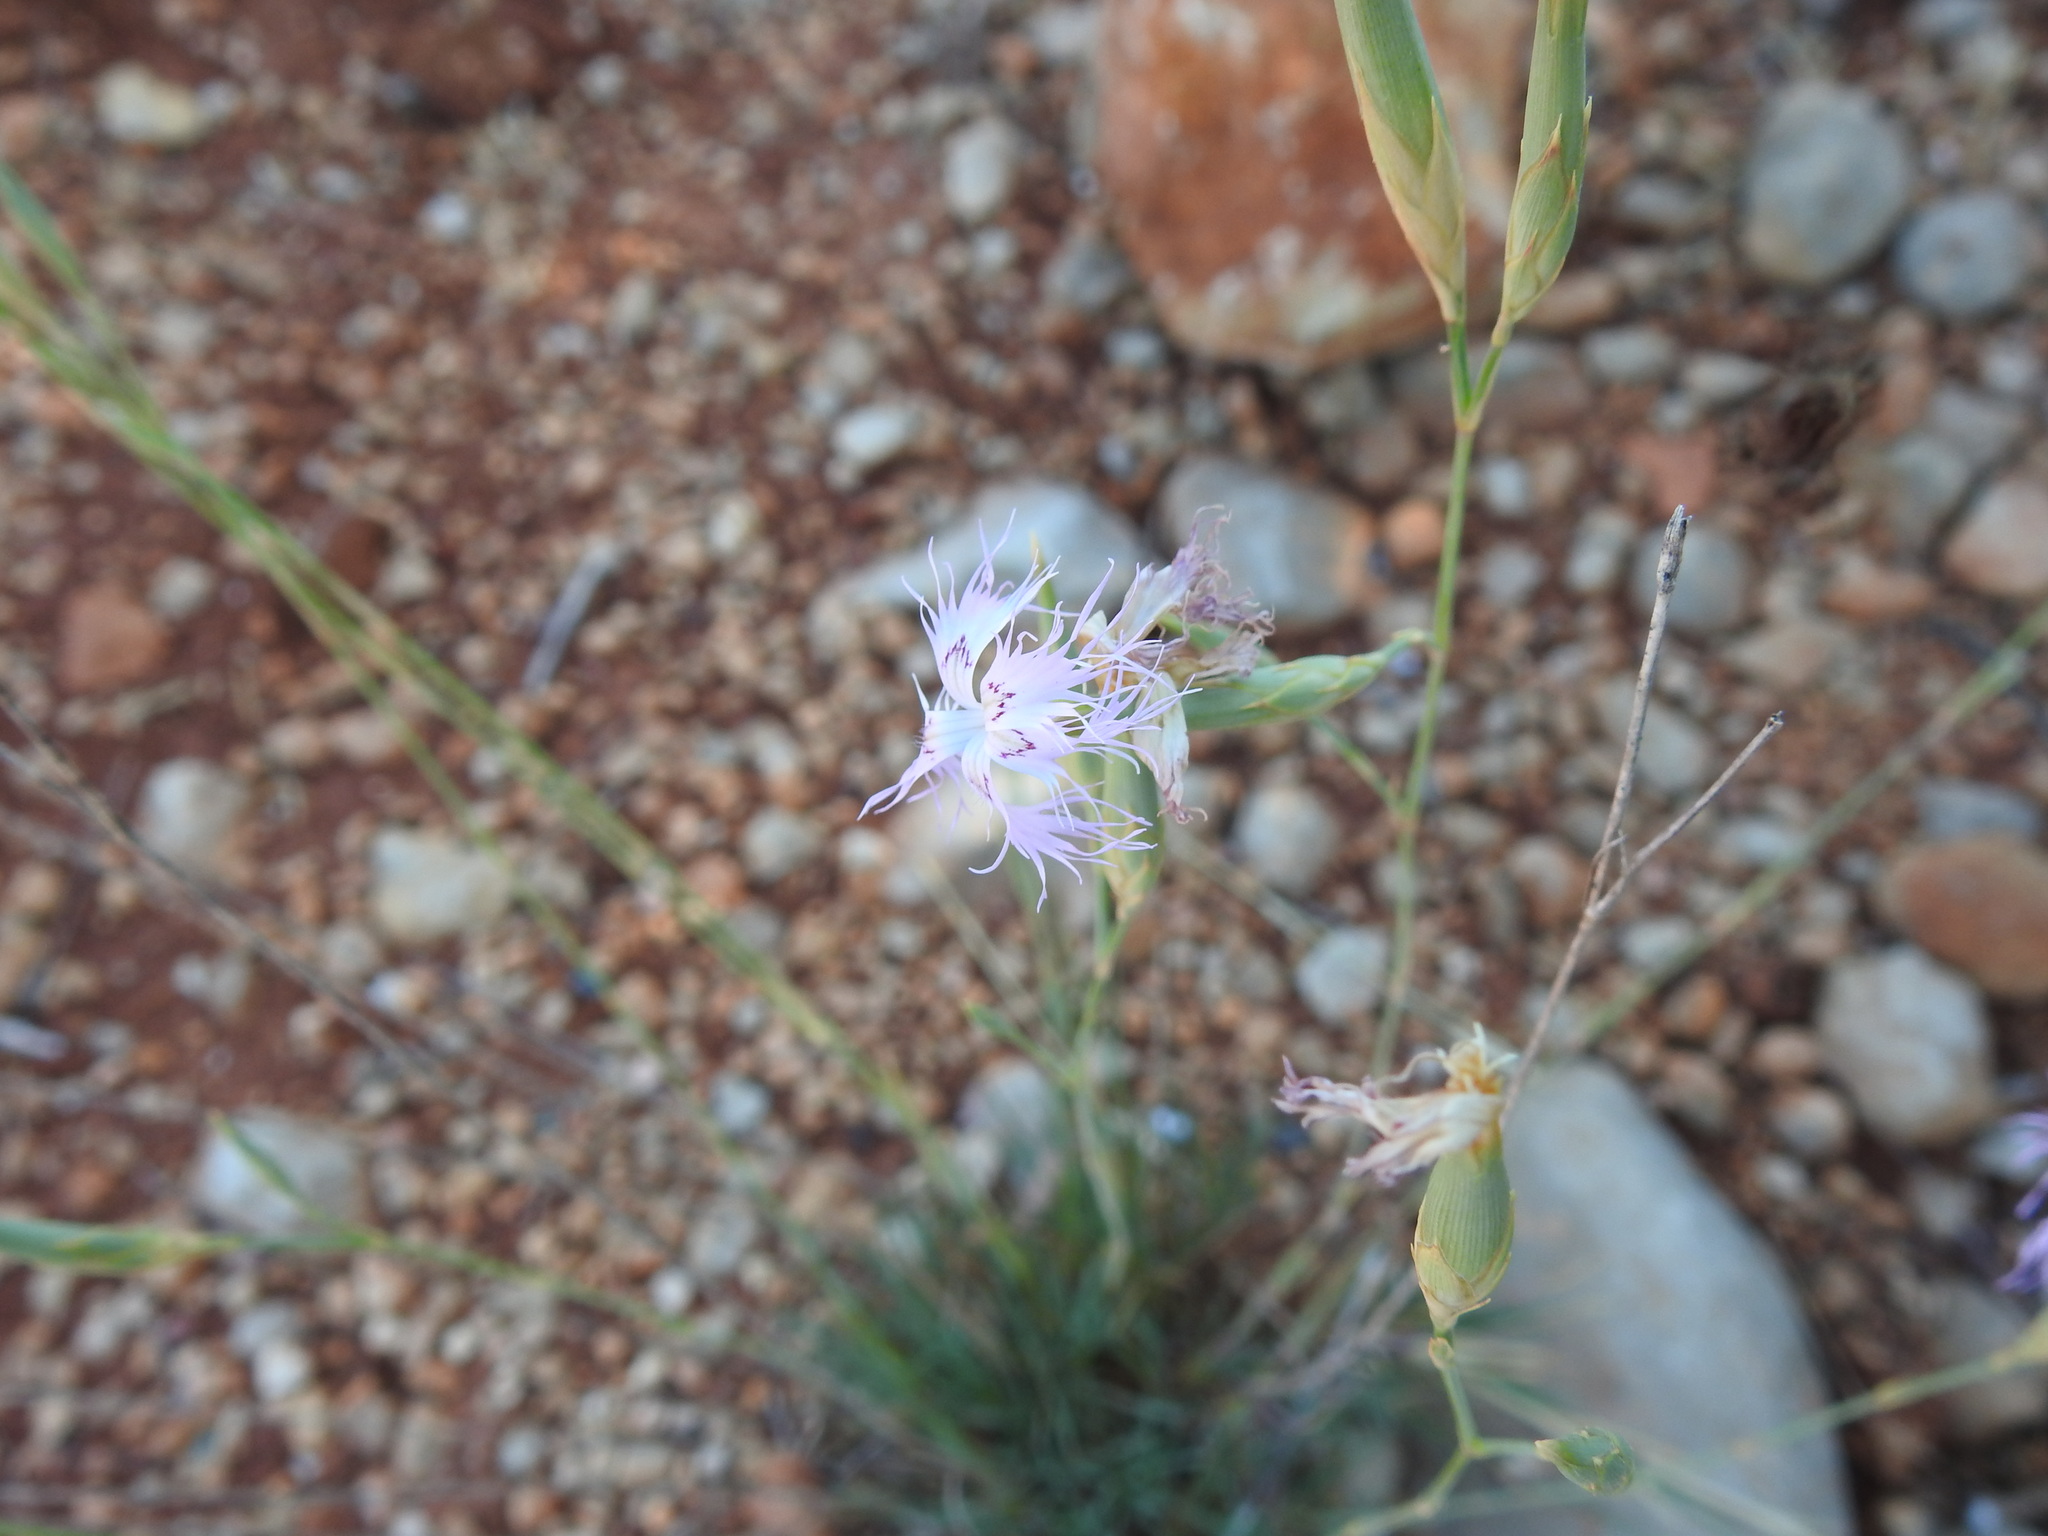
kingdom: Plantae
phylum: Tracheophyta
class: Magnoliopsida
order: Caryophyllales
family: Caryophyllaceae
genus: Dianthus
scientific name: Dianthus broteri
